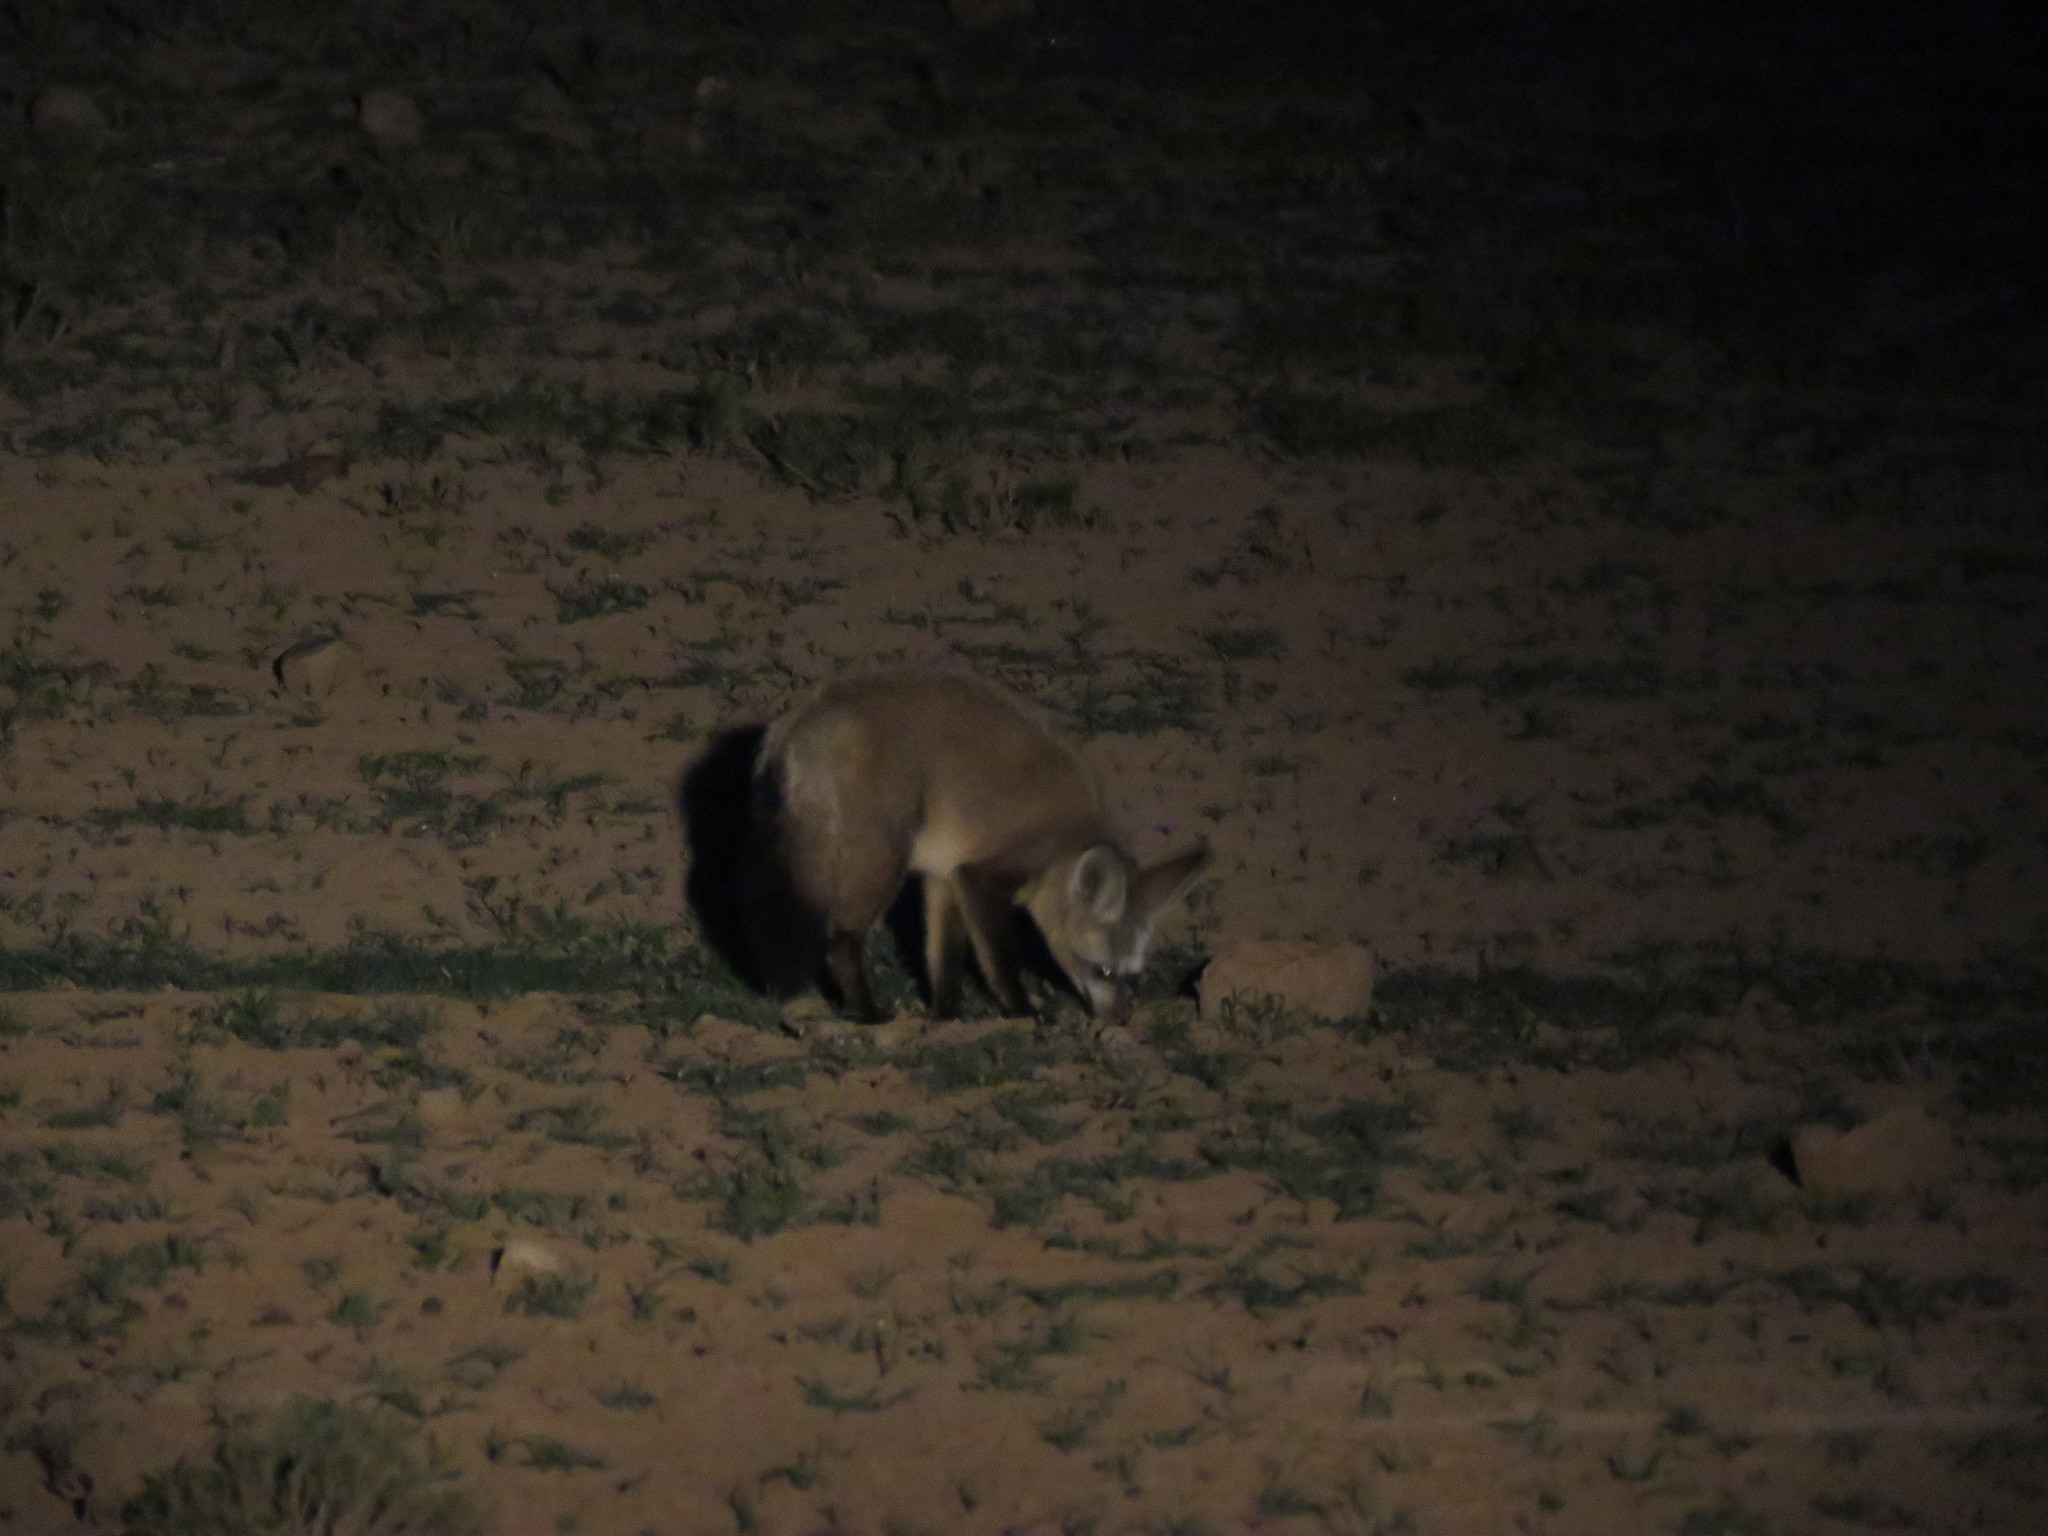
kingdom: Animalia
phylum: Chordata
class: Mammalia
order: Carnivora
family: Canidae
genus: Otocyon
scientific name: Otocyon megalotis
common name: Bat-eared fox
